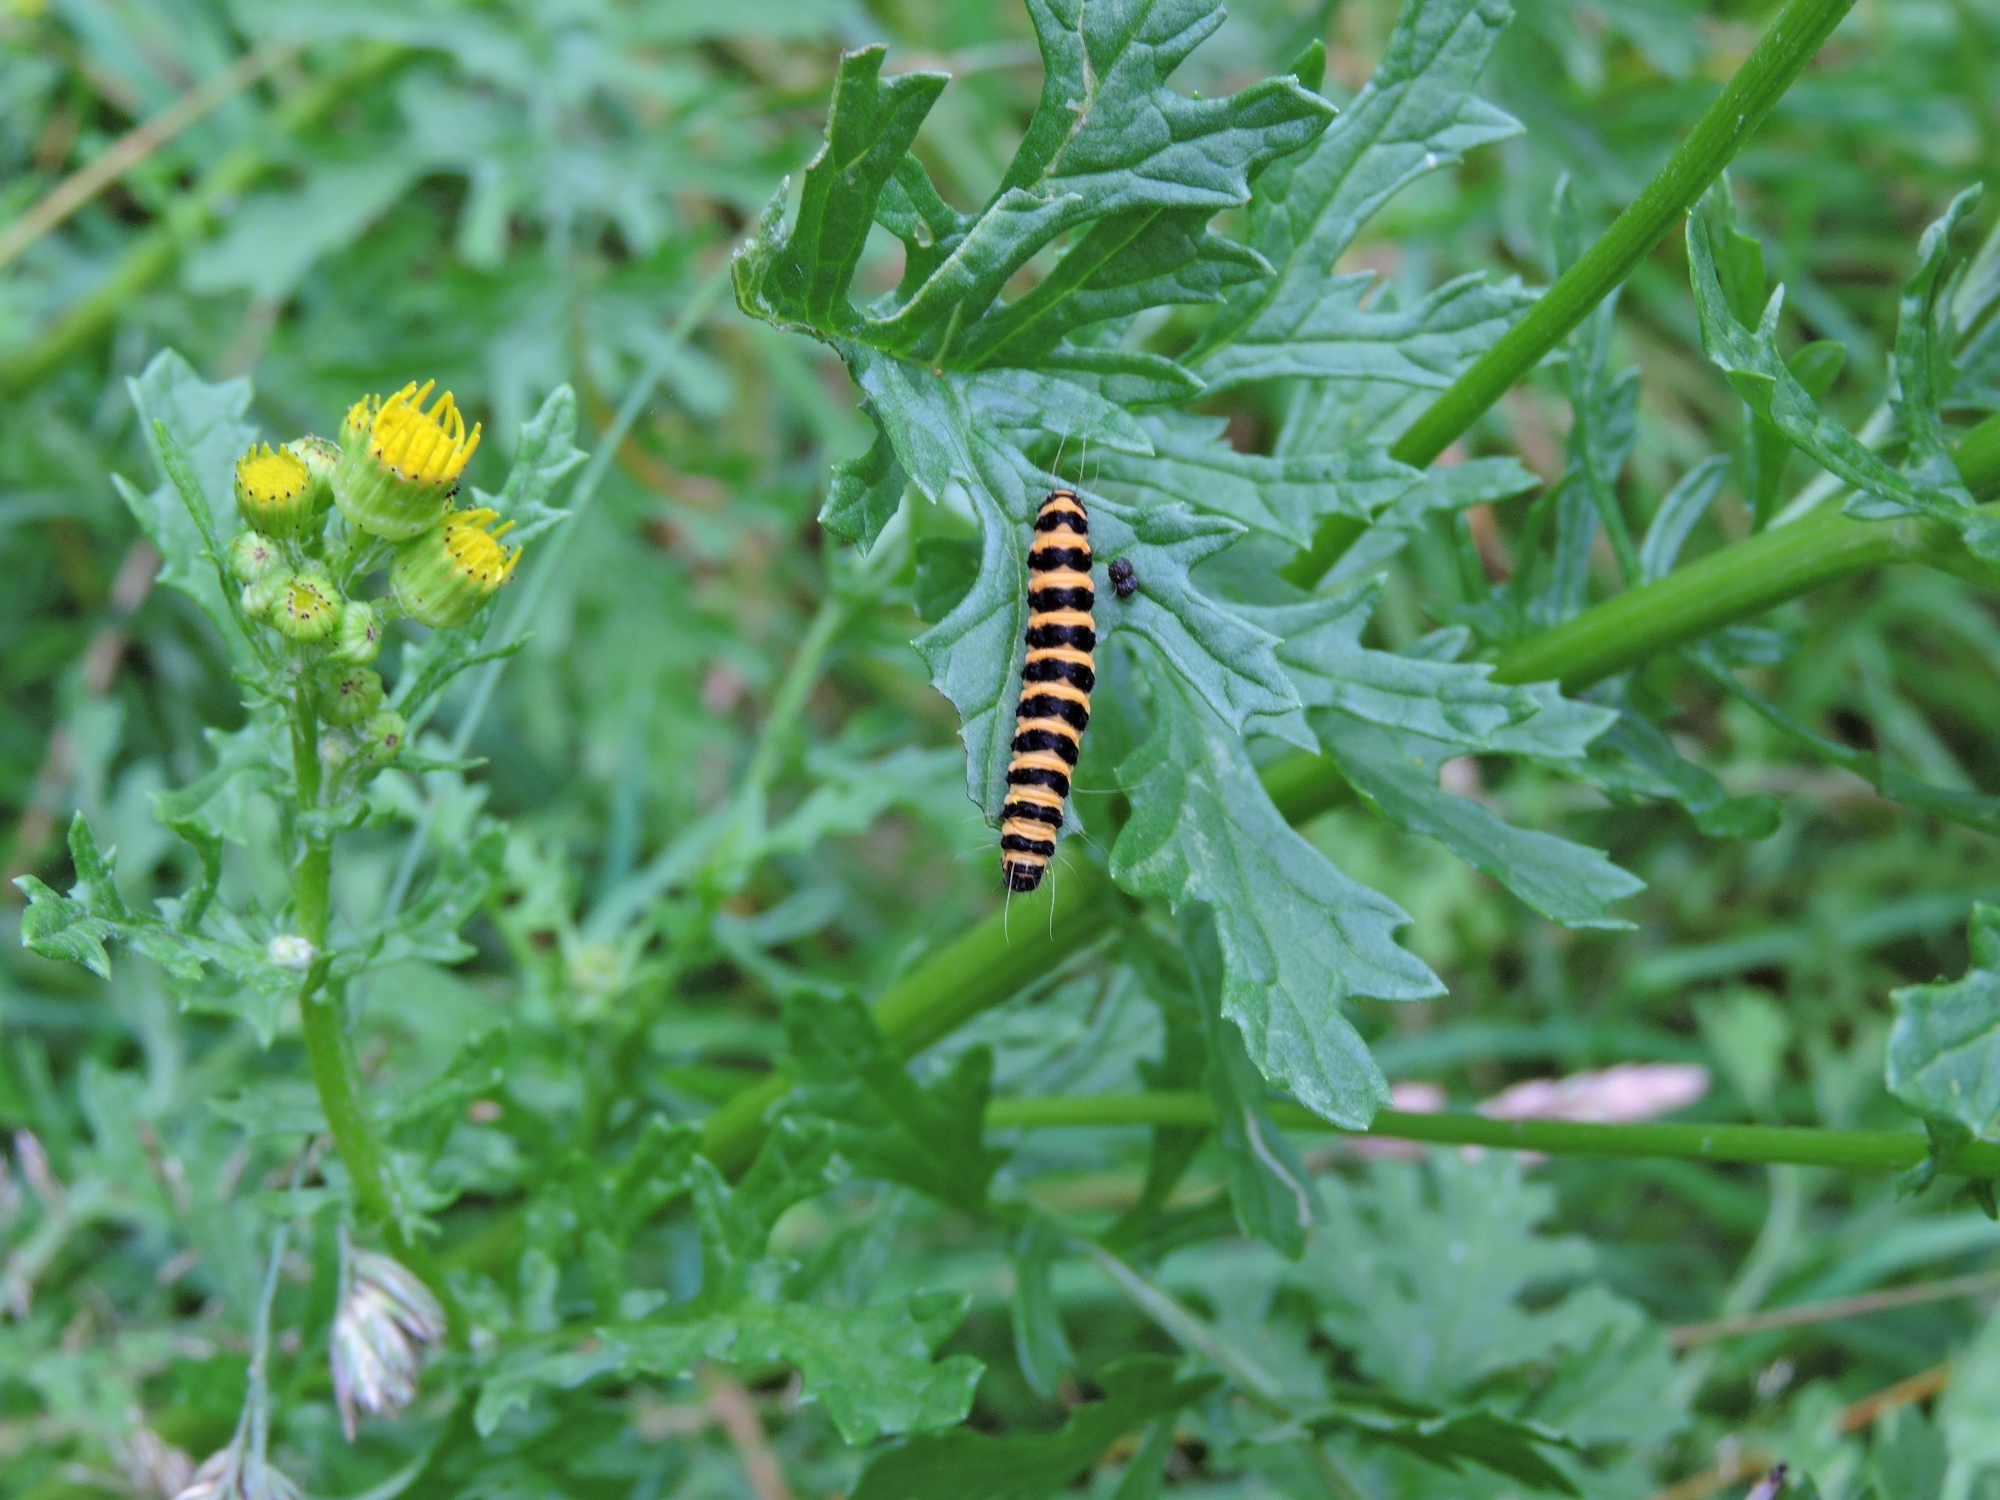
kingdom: Animalia
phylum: Arthropoda
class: Insecta
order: Lepidoptera
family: Erebidae
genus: Tyria
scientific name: Tyria jacobaeae
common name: Cinnabar
